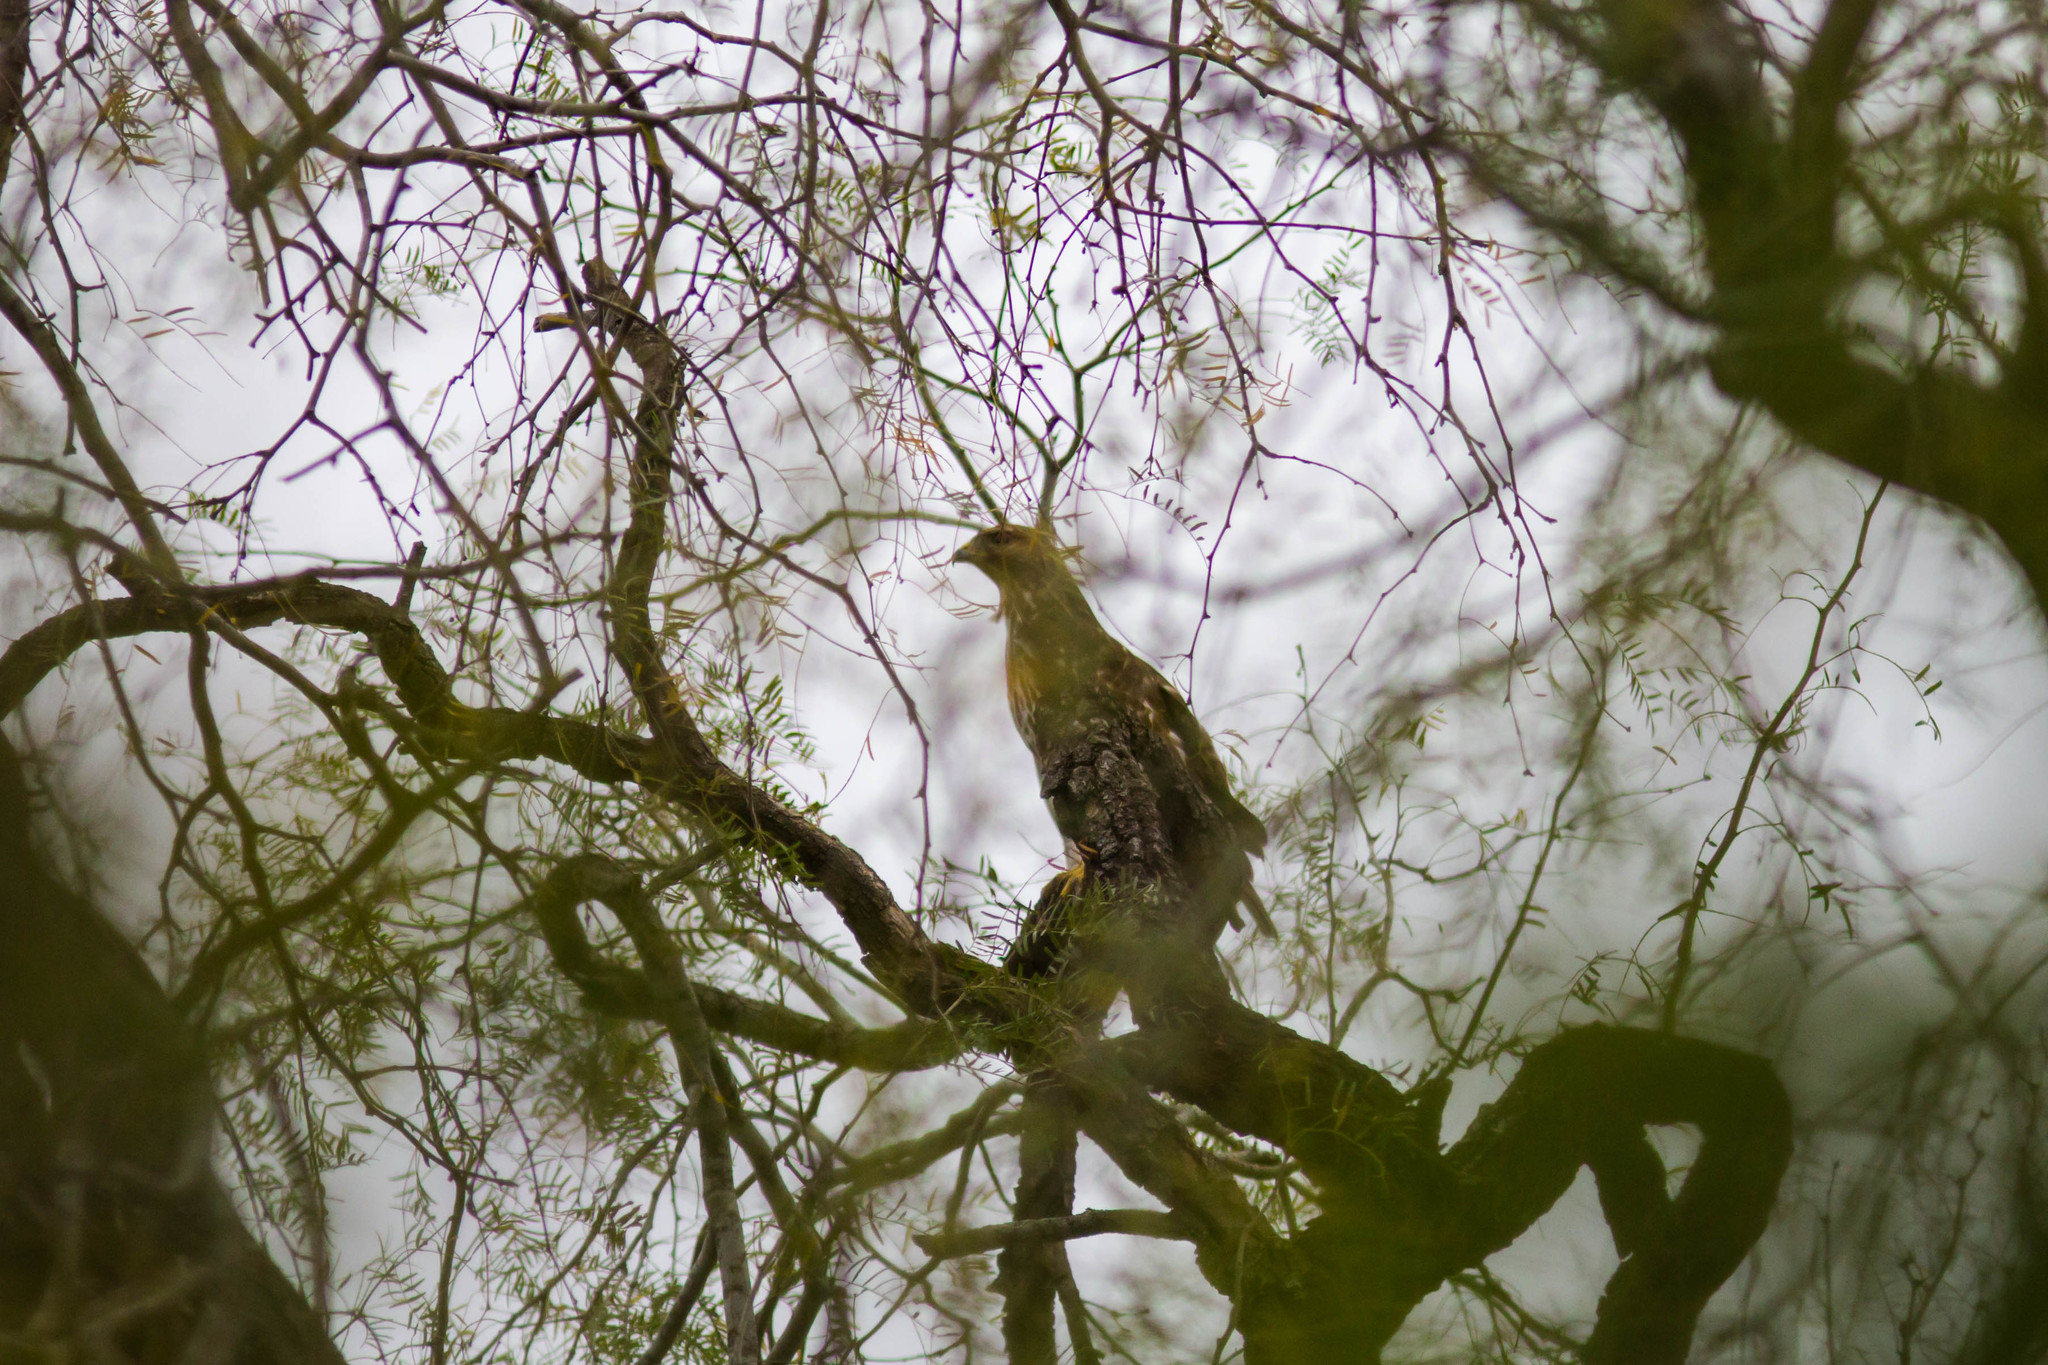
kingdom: Animalia
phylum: Chordata
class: Aves
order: Accipitriformes
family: Accipitridae
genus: Buteo
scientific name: Buteo lineatus
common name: Red-shouldered hawk
